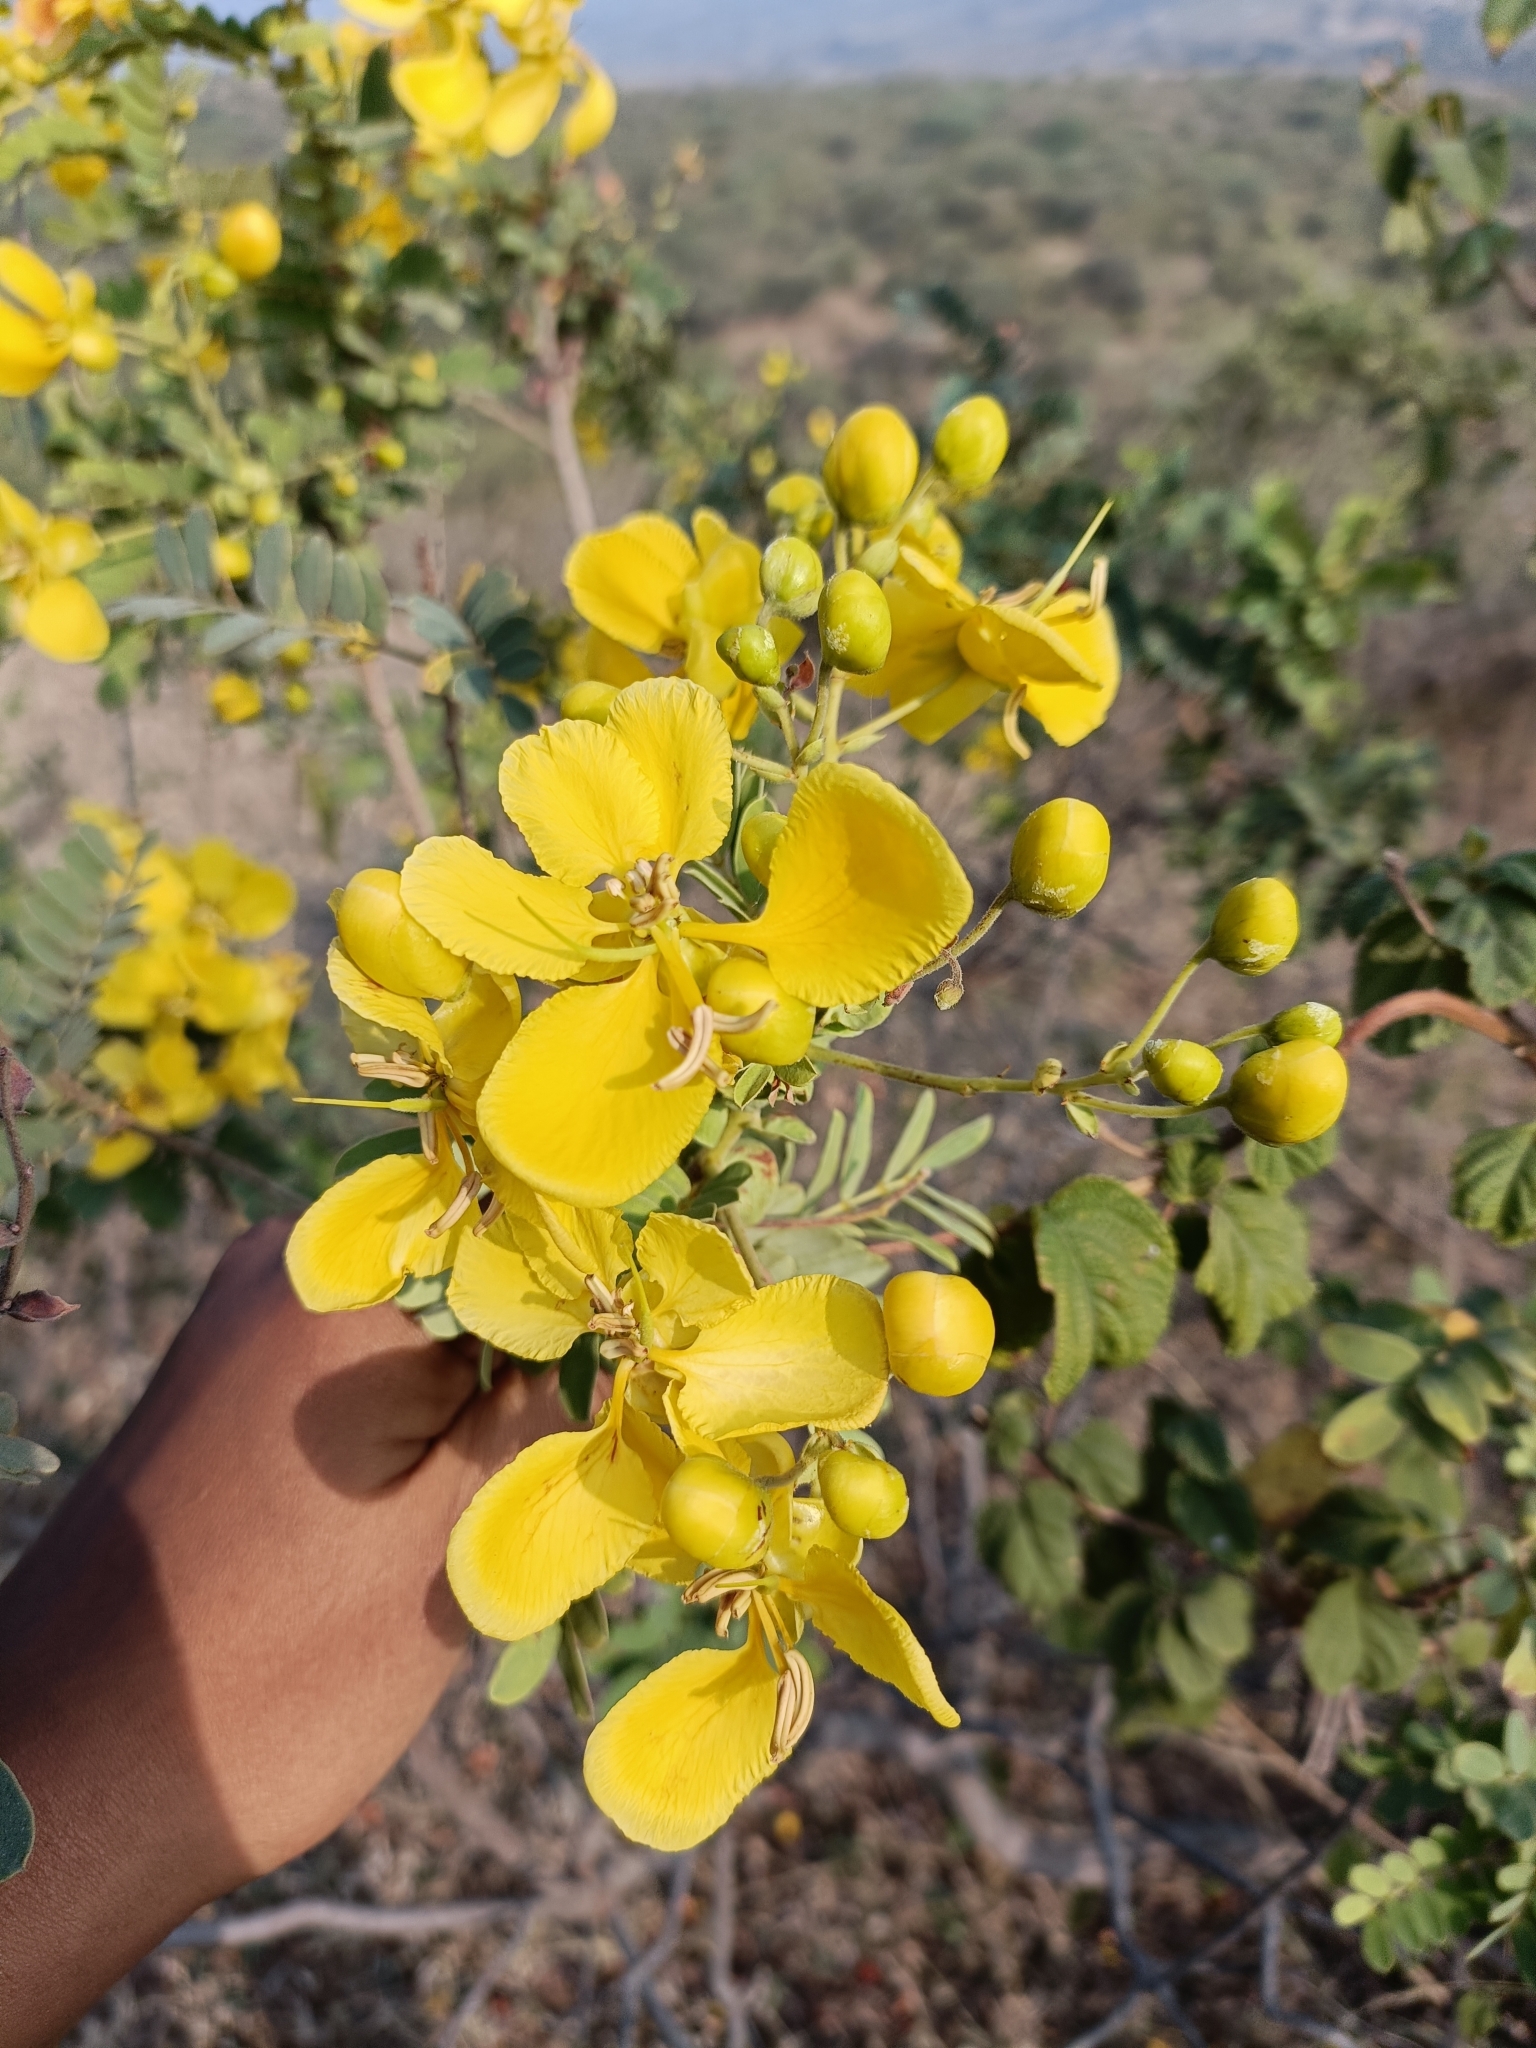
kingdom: Plantae
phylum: Tracheophyta
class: Magnoliopsida
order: Fabales
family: Fabaceae
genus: Senna
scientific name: Senna auriculata
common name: Tanner's cassia
